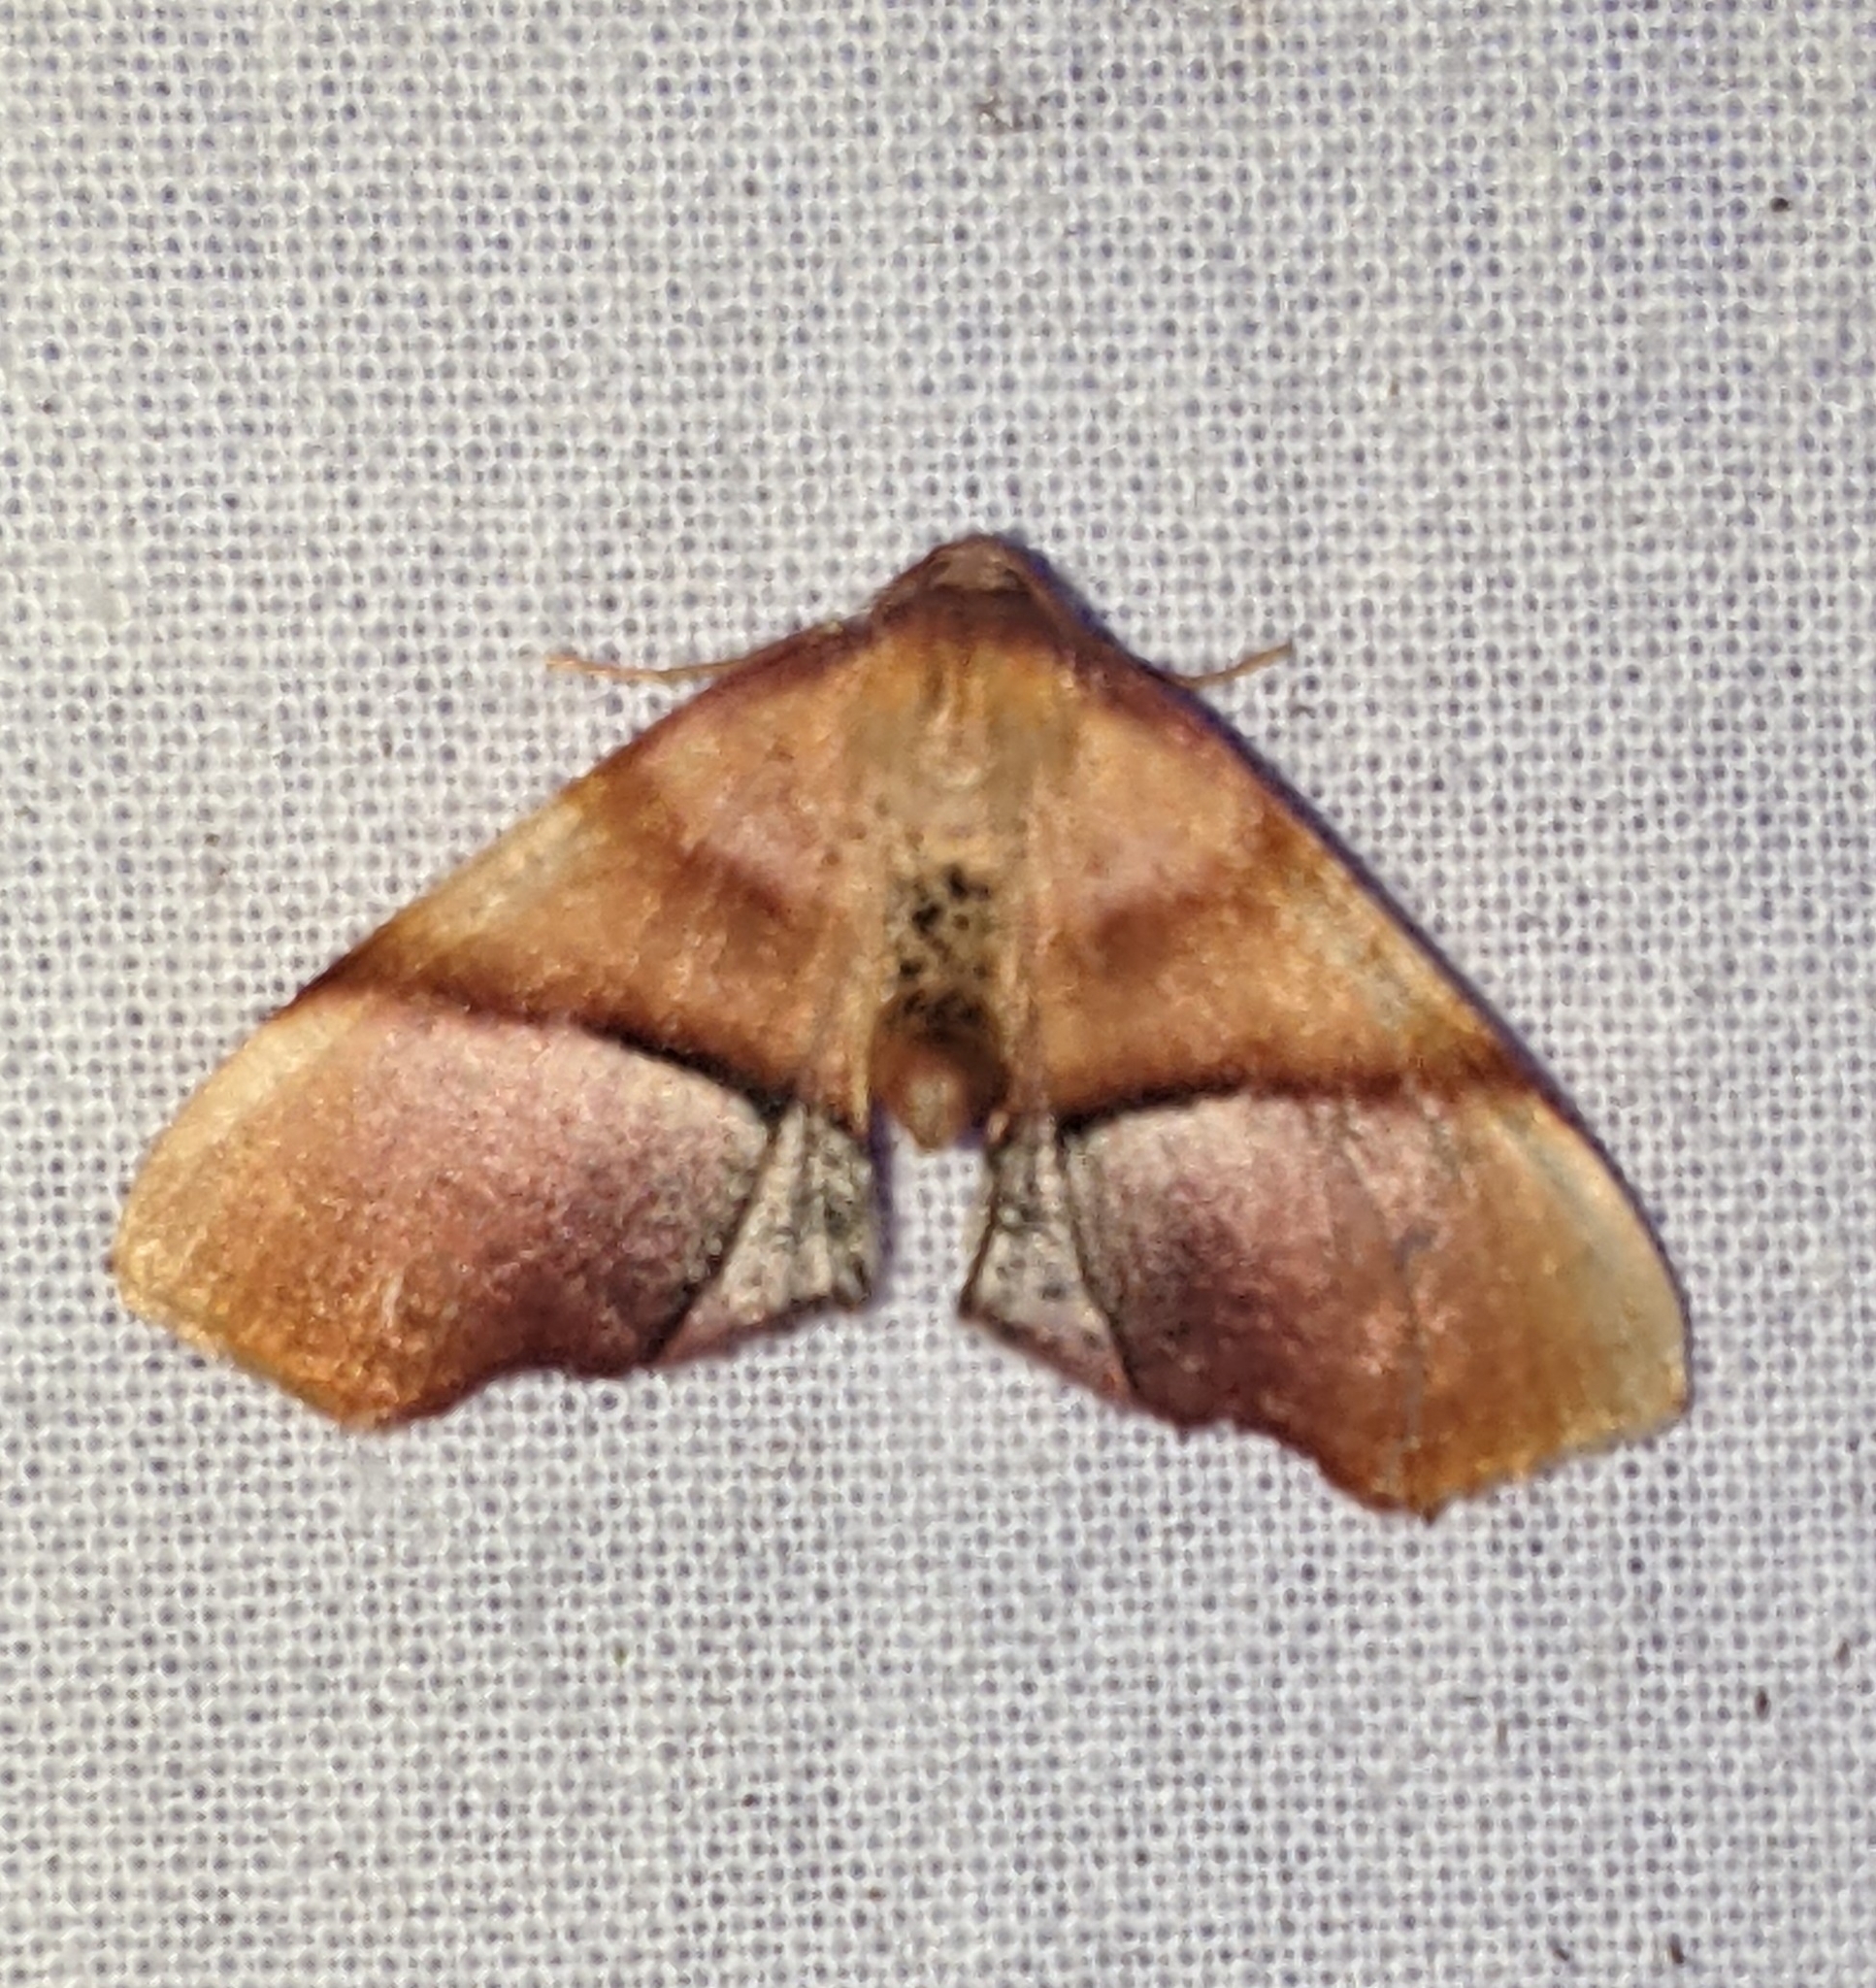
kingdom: Animalia
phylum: Arthropoda
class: Insecta
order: Lepidoptera
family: Geometridae
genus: Plagodis
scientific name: Plagodis phlogosaria
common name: Straight-lined plagodis
